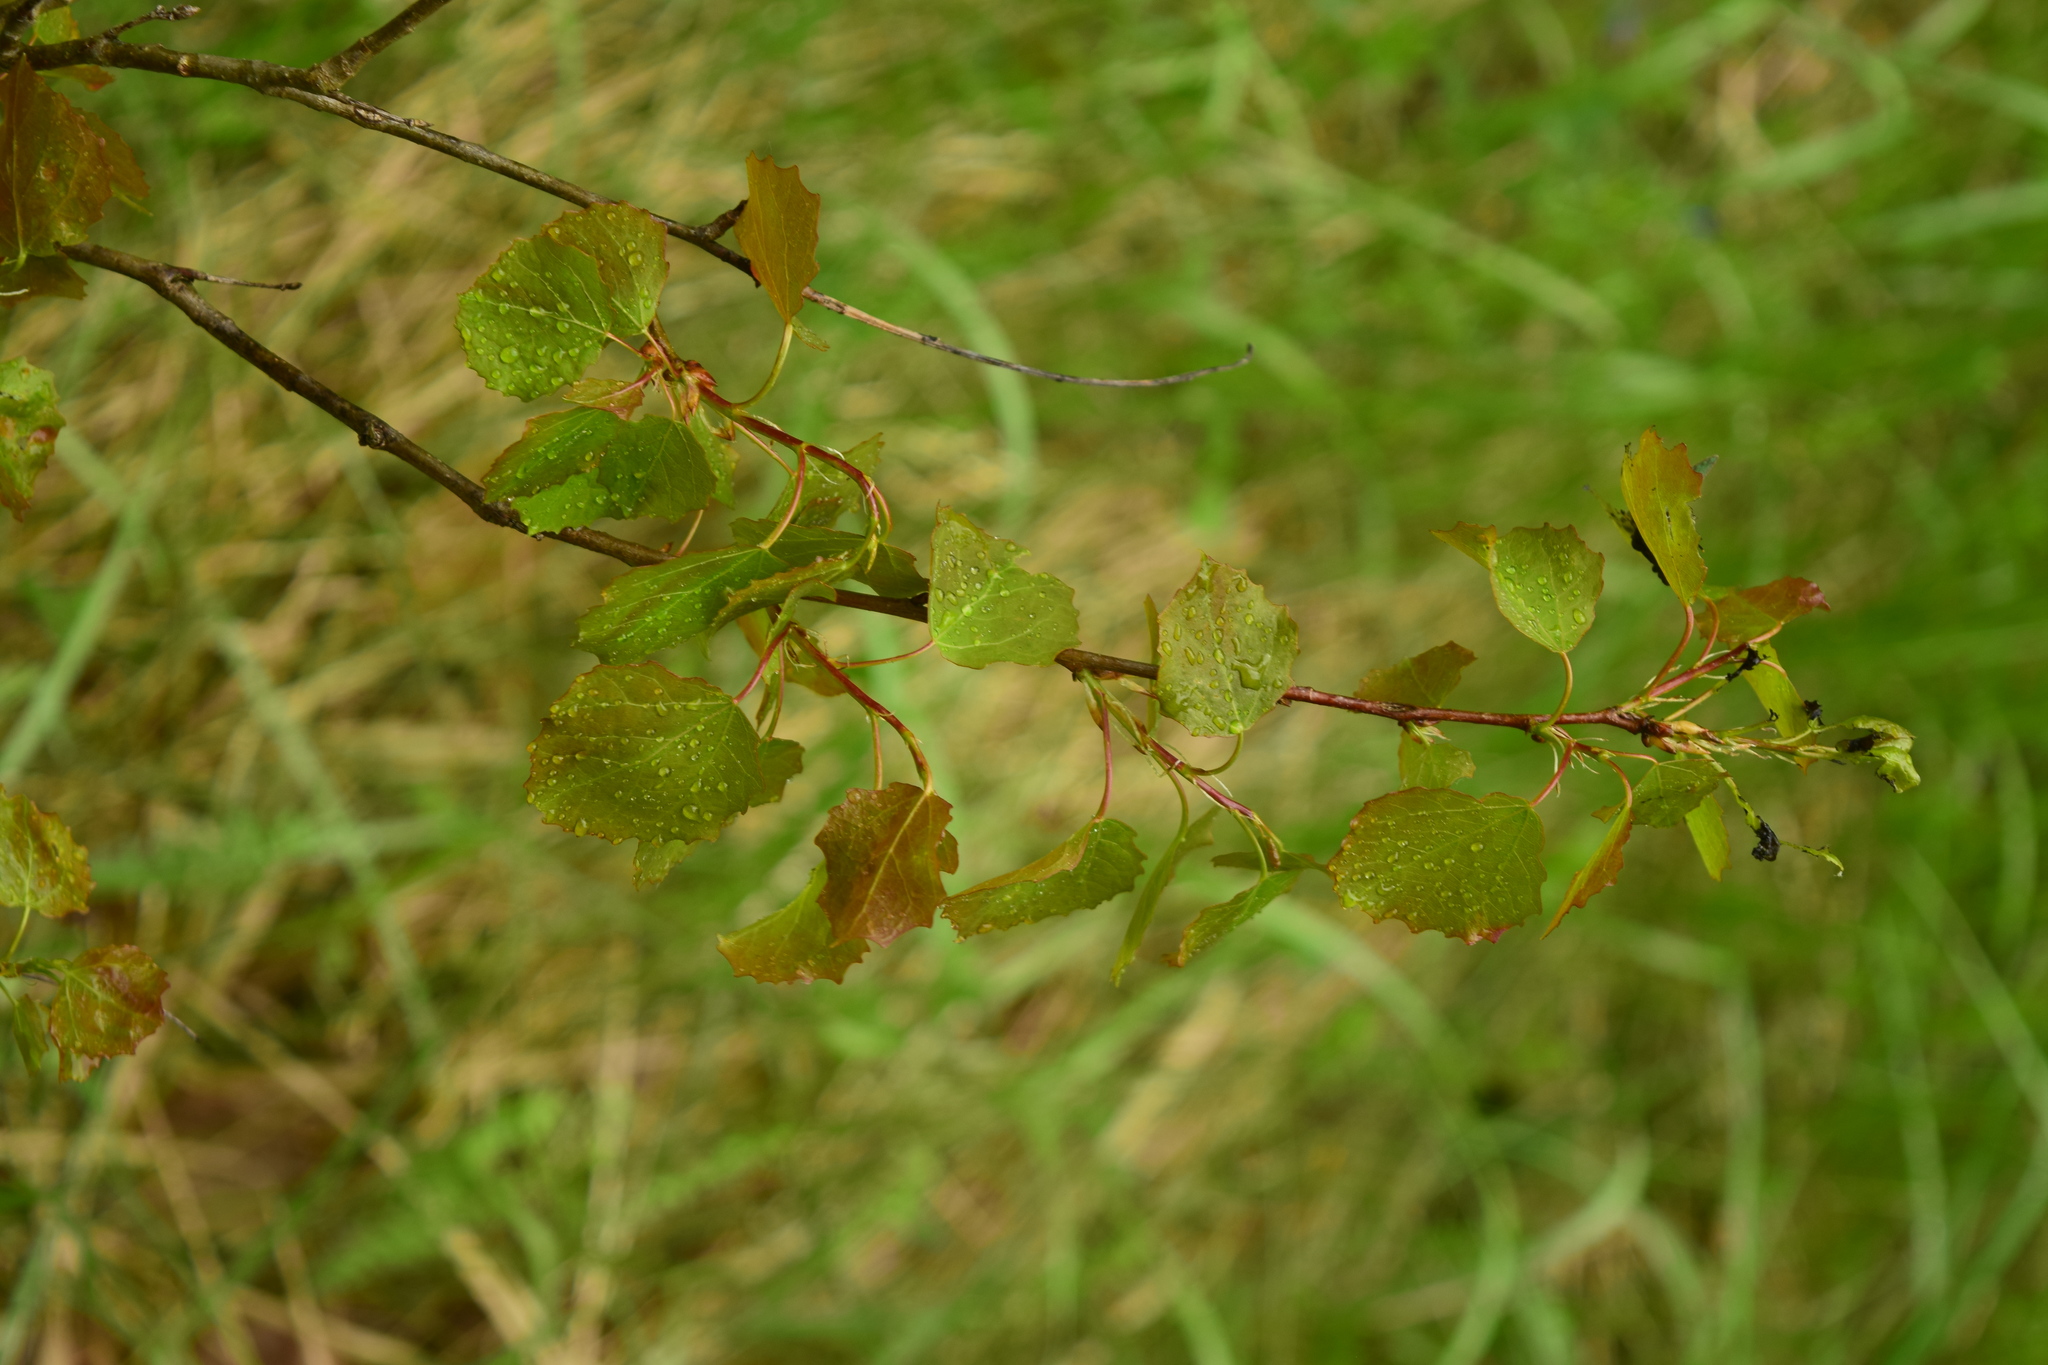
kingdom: Plantae
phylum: Tracheophyta
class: Magnoliopsida
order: Malpighiales
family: Salicaceae
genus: Populus
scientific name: Populus tremula
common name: European aspen
